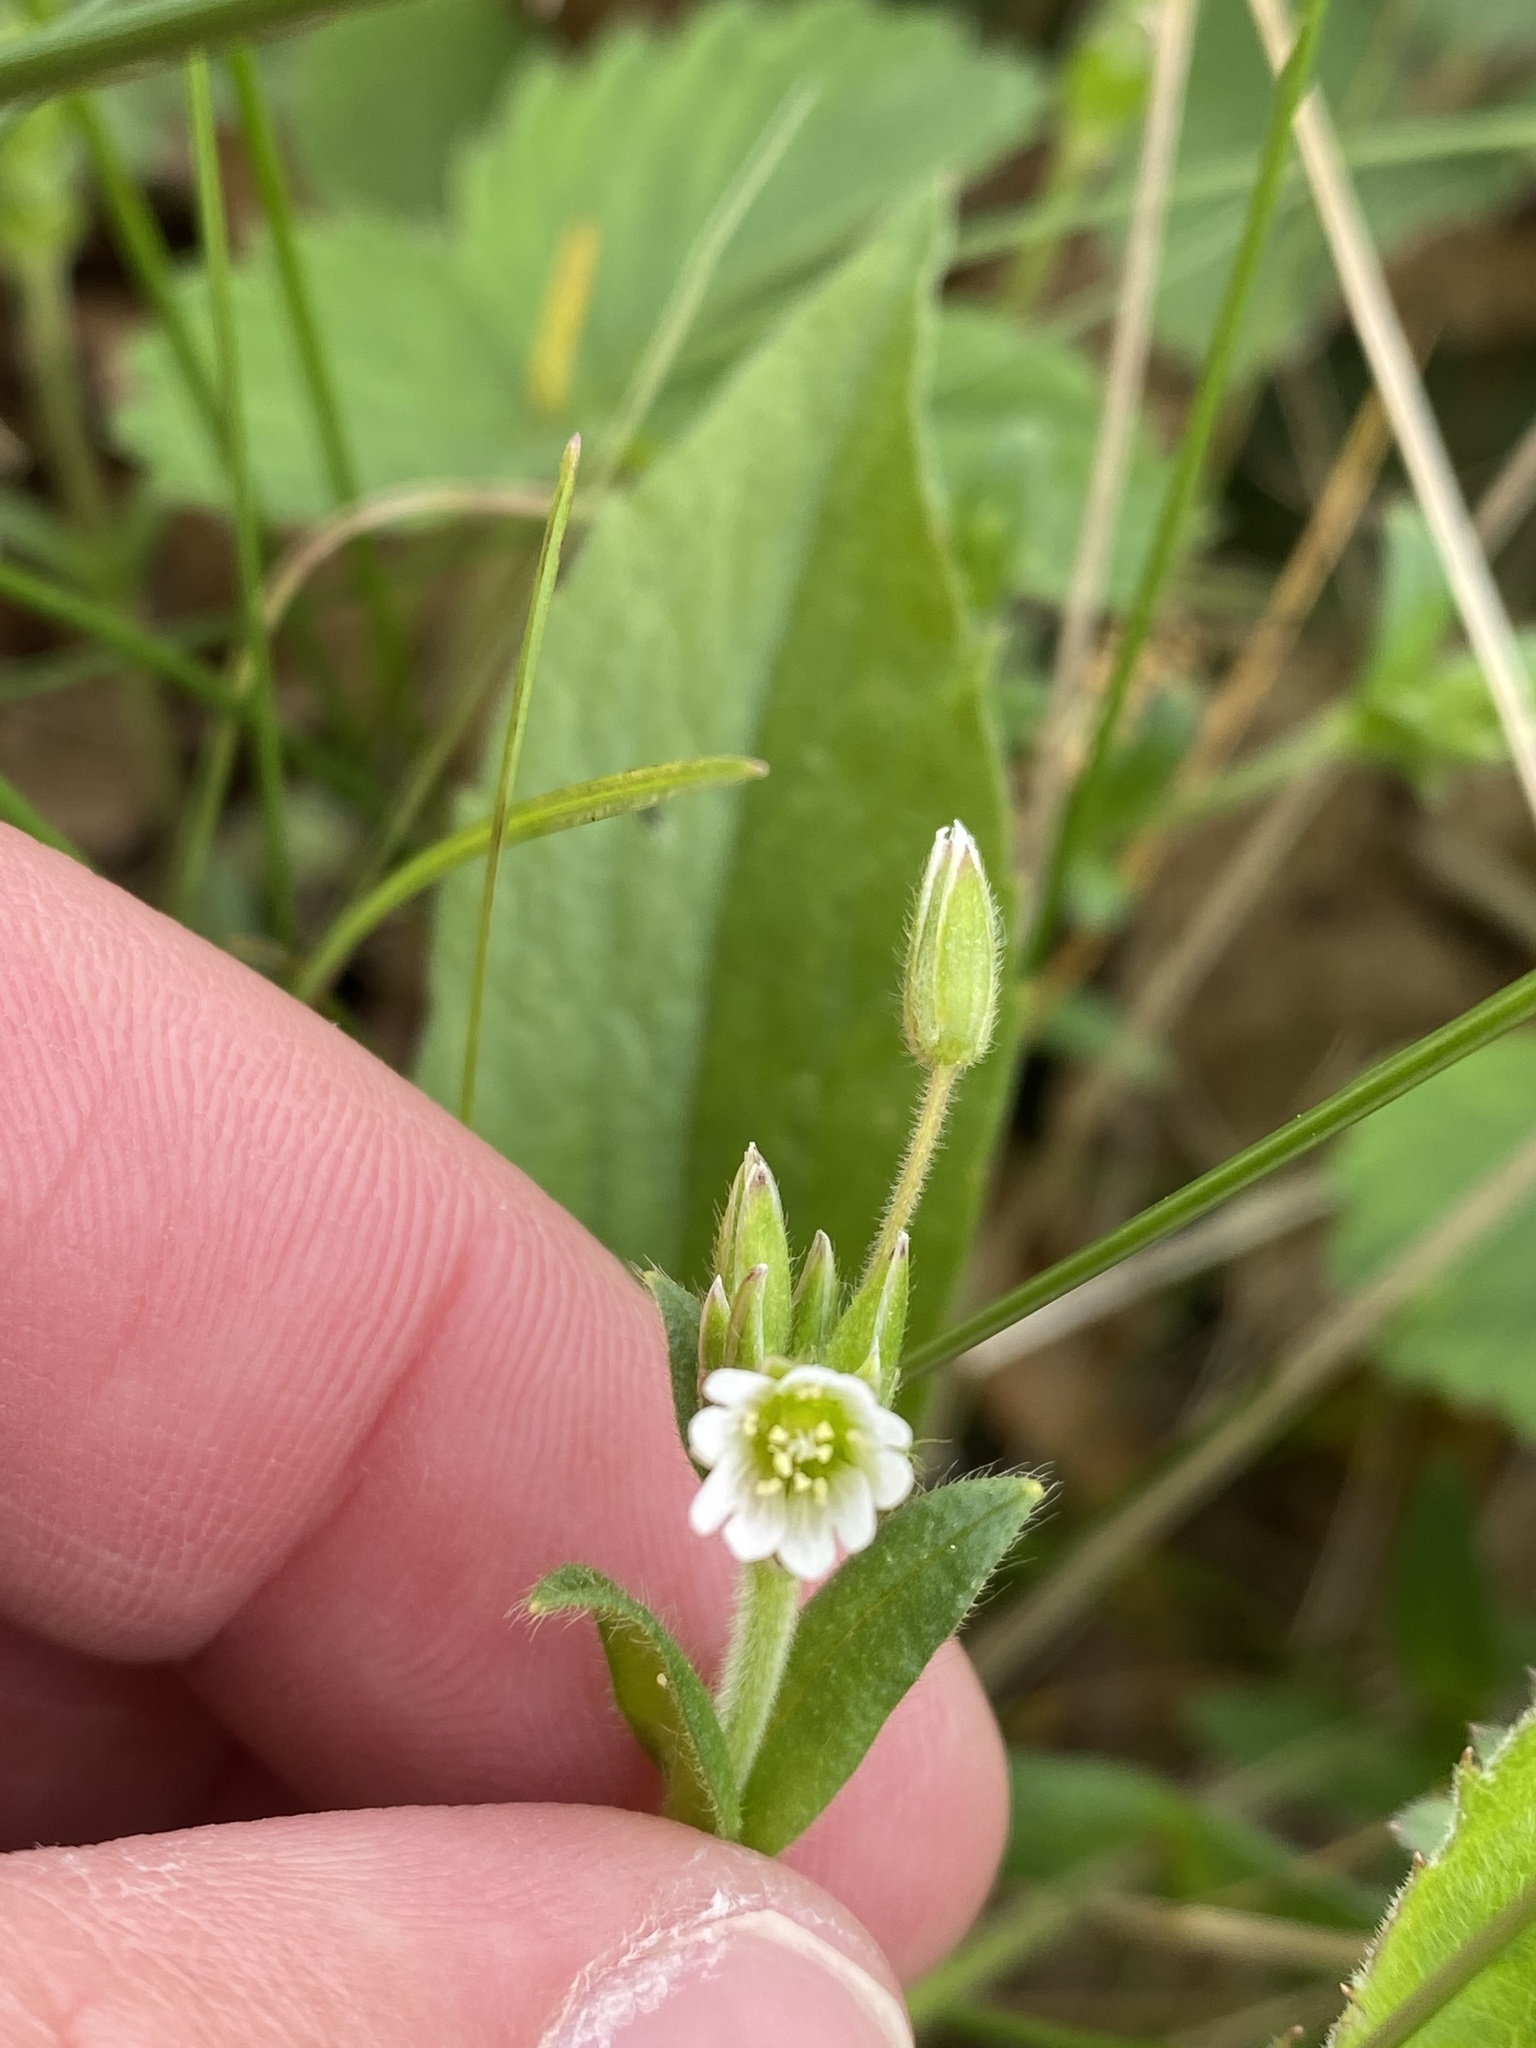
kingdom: Plantae
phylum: Tracheophyta
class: Magnoliopsida
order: Caryophyllales
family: Caryophyllaceae
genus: Cerastium
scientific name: Cerastium fontanum
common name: Common mouse-ear
